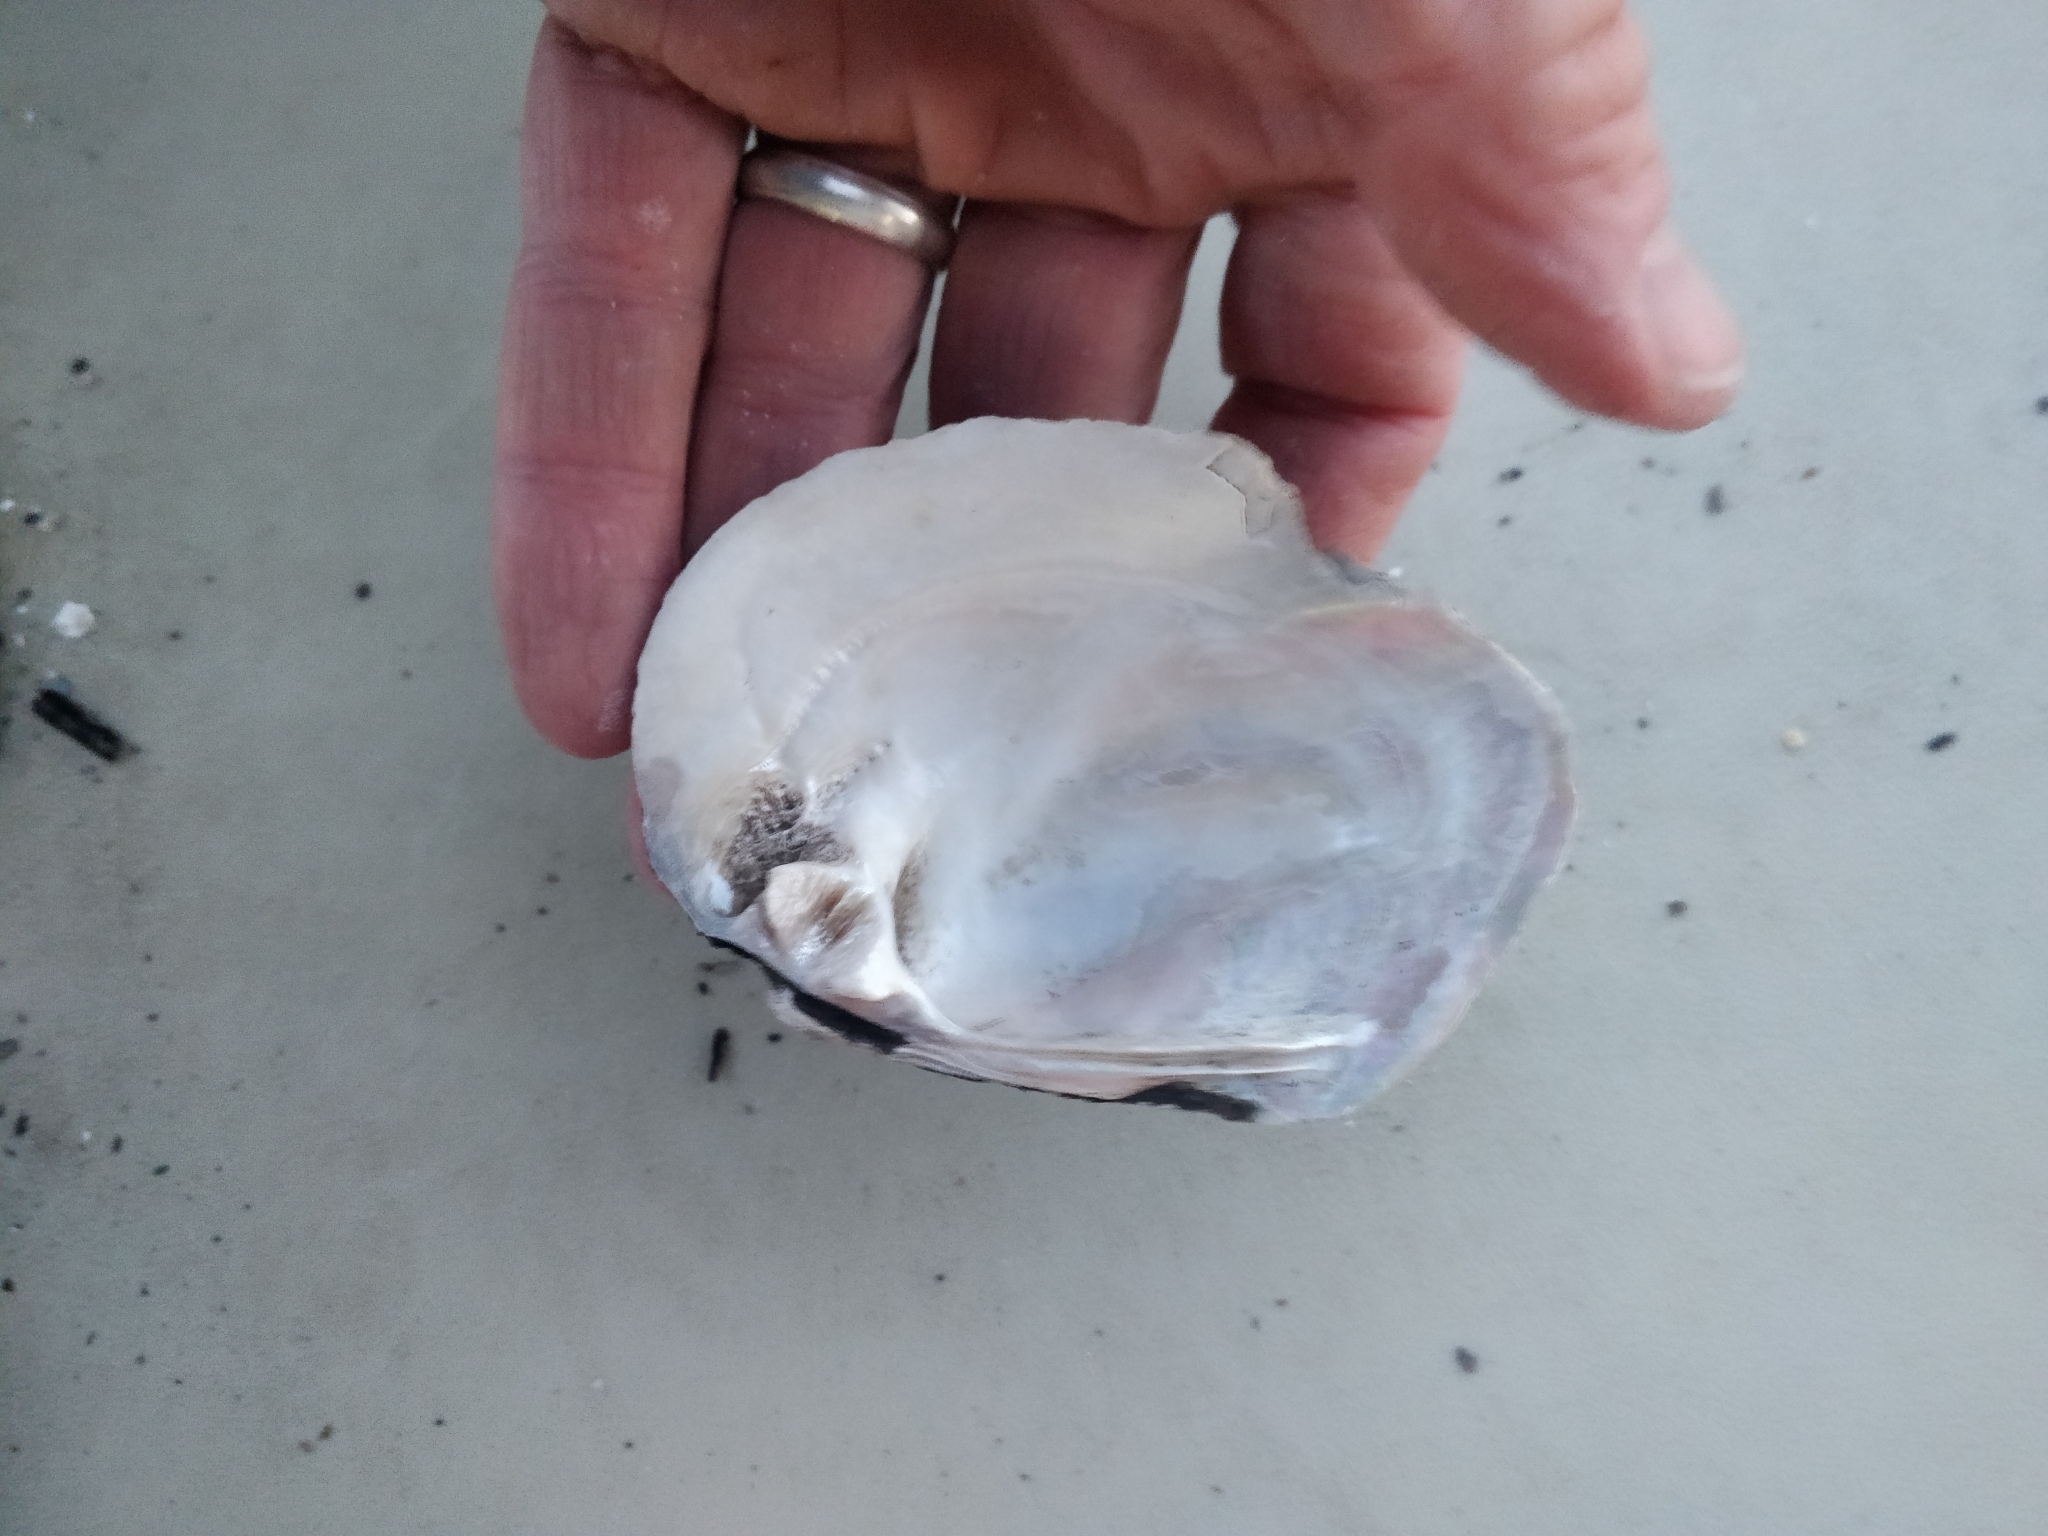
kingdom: Animalia
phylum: Mollusca
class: Bivalvia
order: Unionida
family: Unionidae
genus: Amblema
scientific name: Amblema plicata
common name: Threeridge
